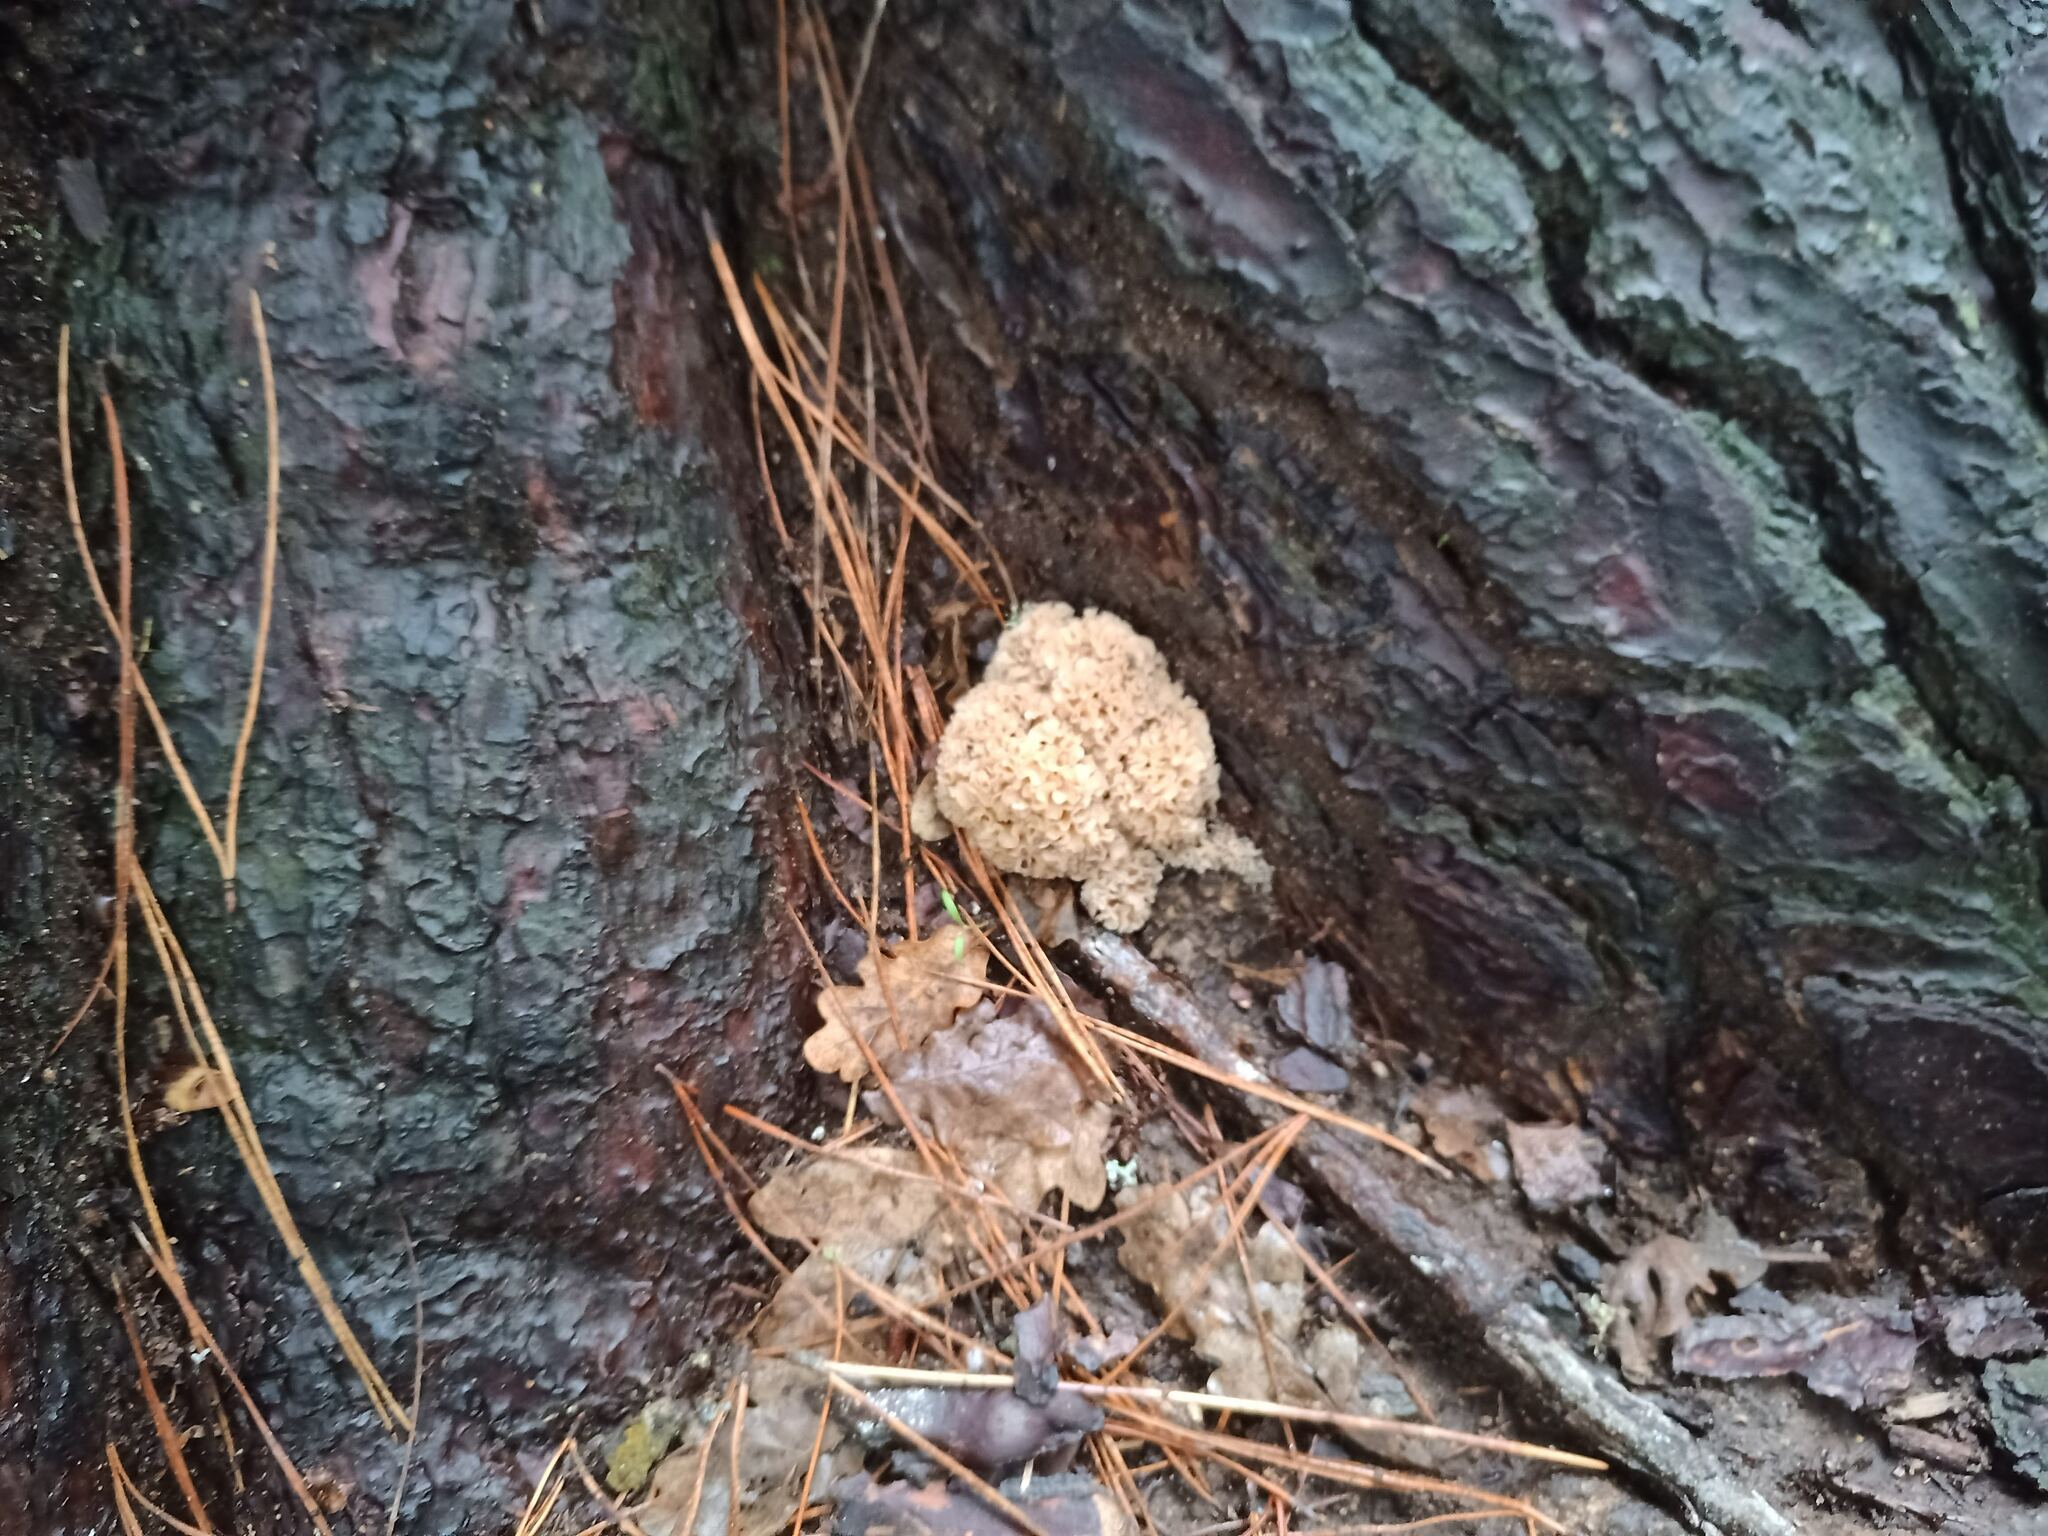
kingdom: Fungi
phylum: Basidiomycota
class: Agaricomycetes
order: Polyporales
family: Sparassidaceae
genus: Sparassis
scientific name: Sparassis crispa
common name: Brain fungus
